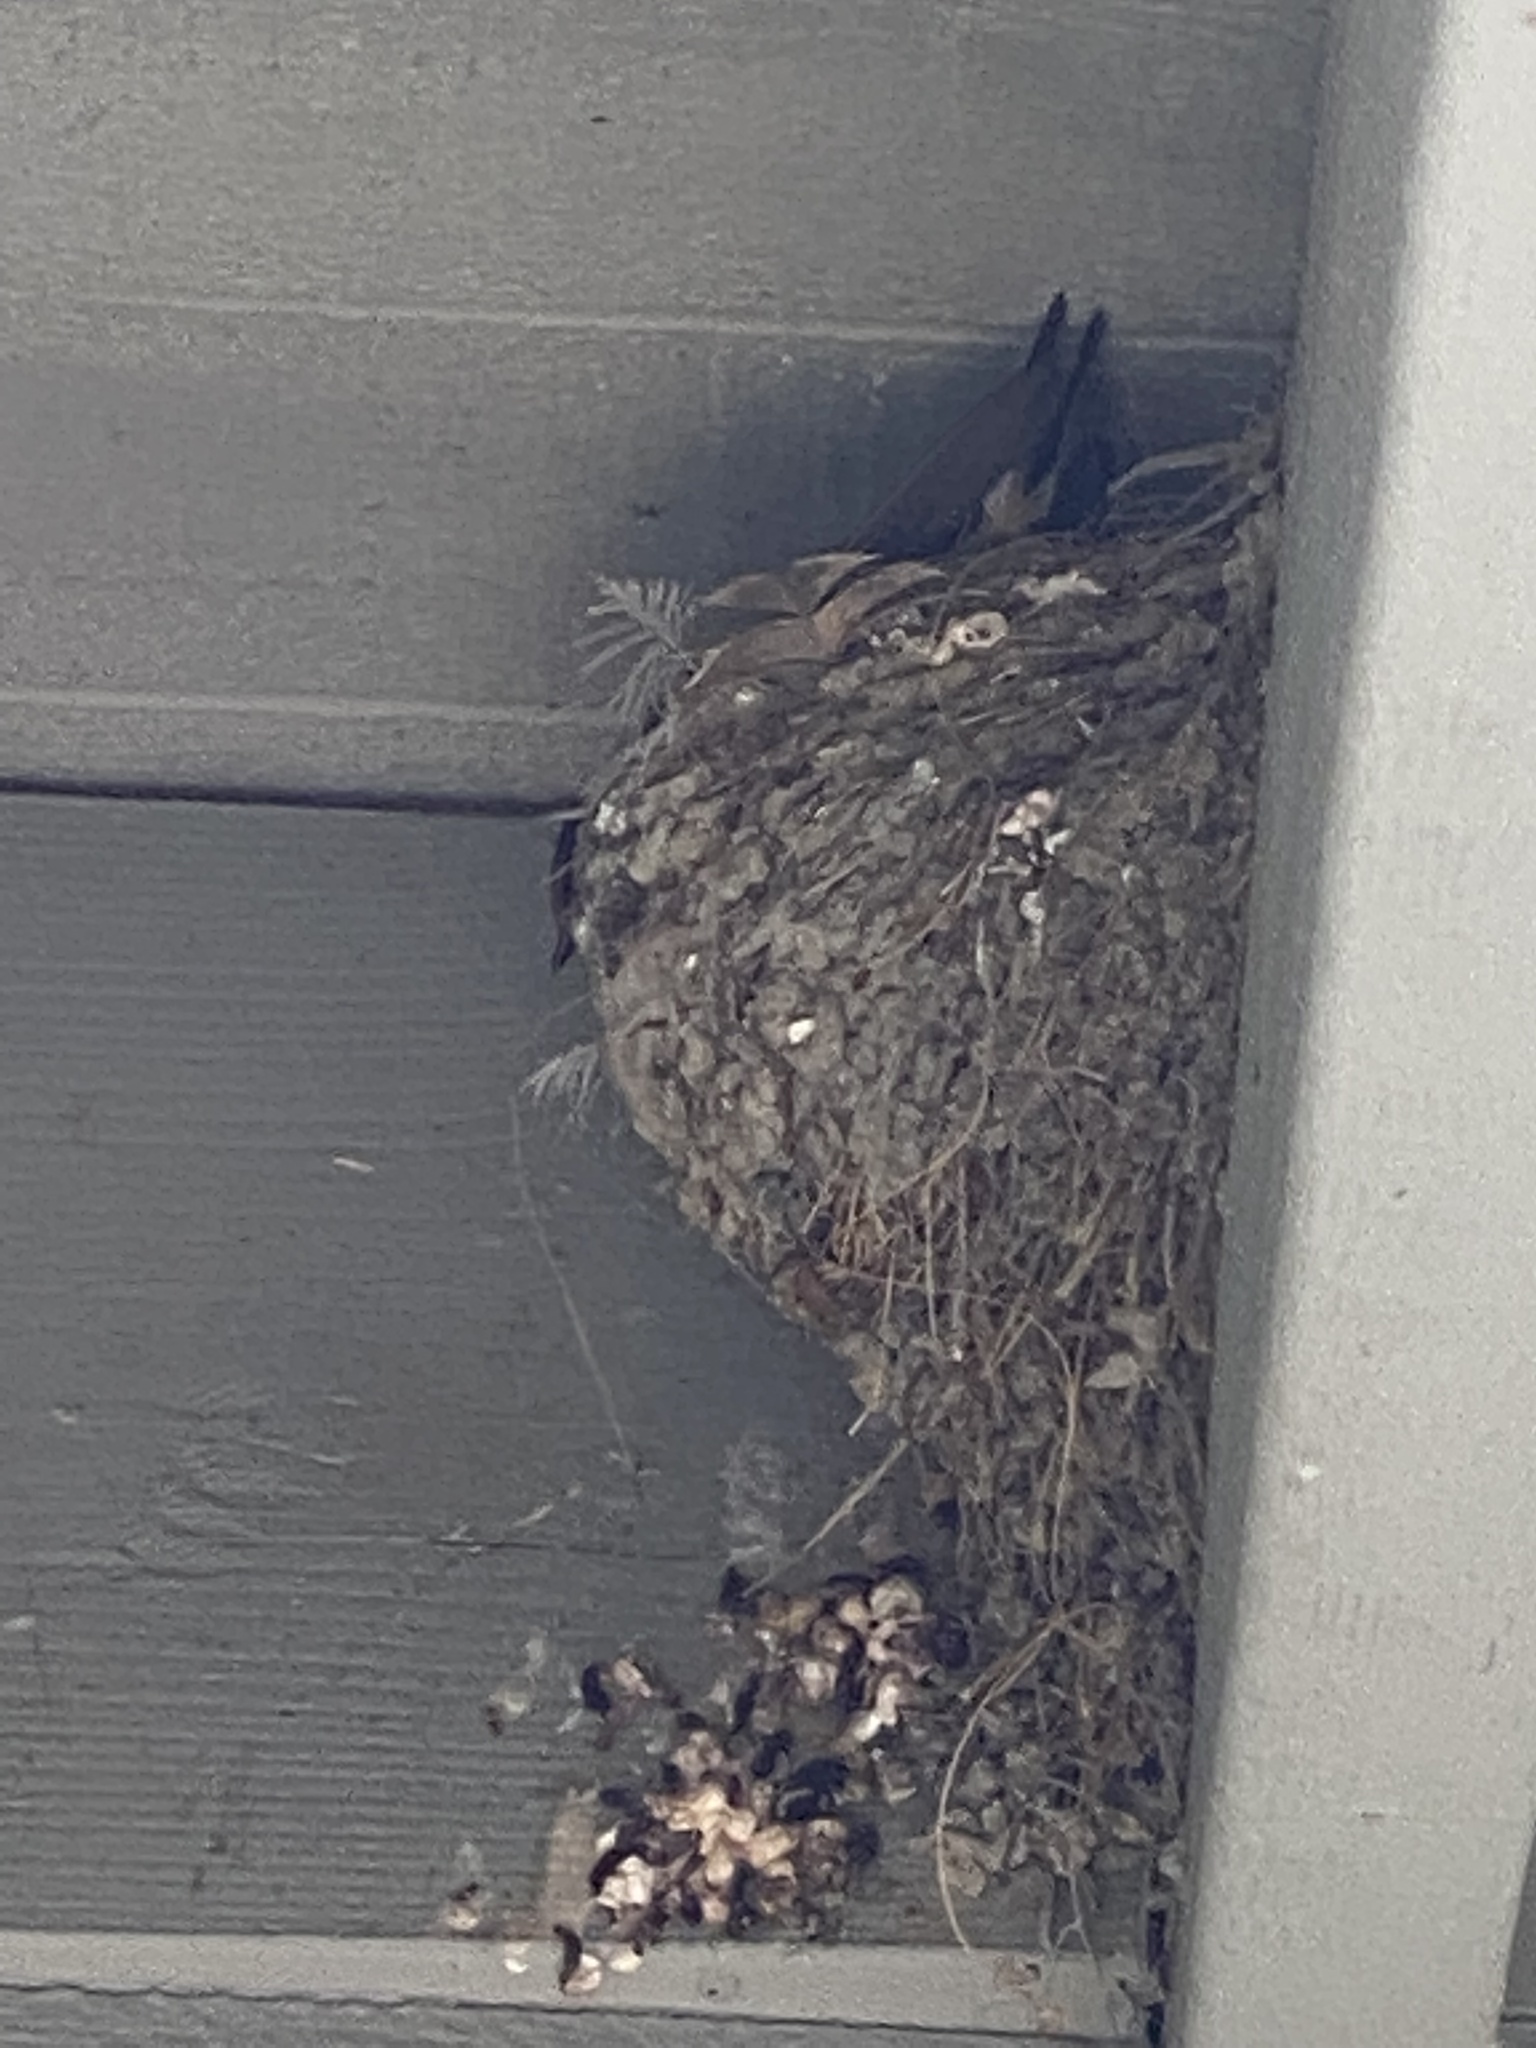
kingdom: Animalia
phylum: Chordata
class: Aves
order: Passeriformes
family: Hirundinidae
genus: Hirundo
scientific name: Hirundo rustica
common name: Barn swallow
